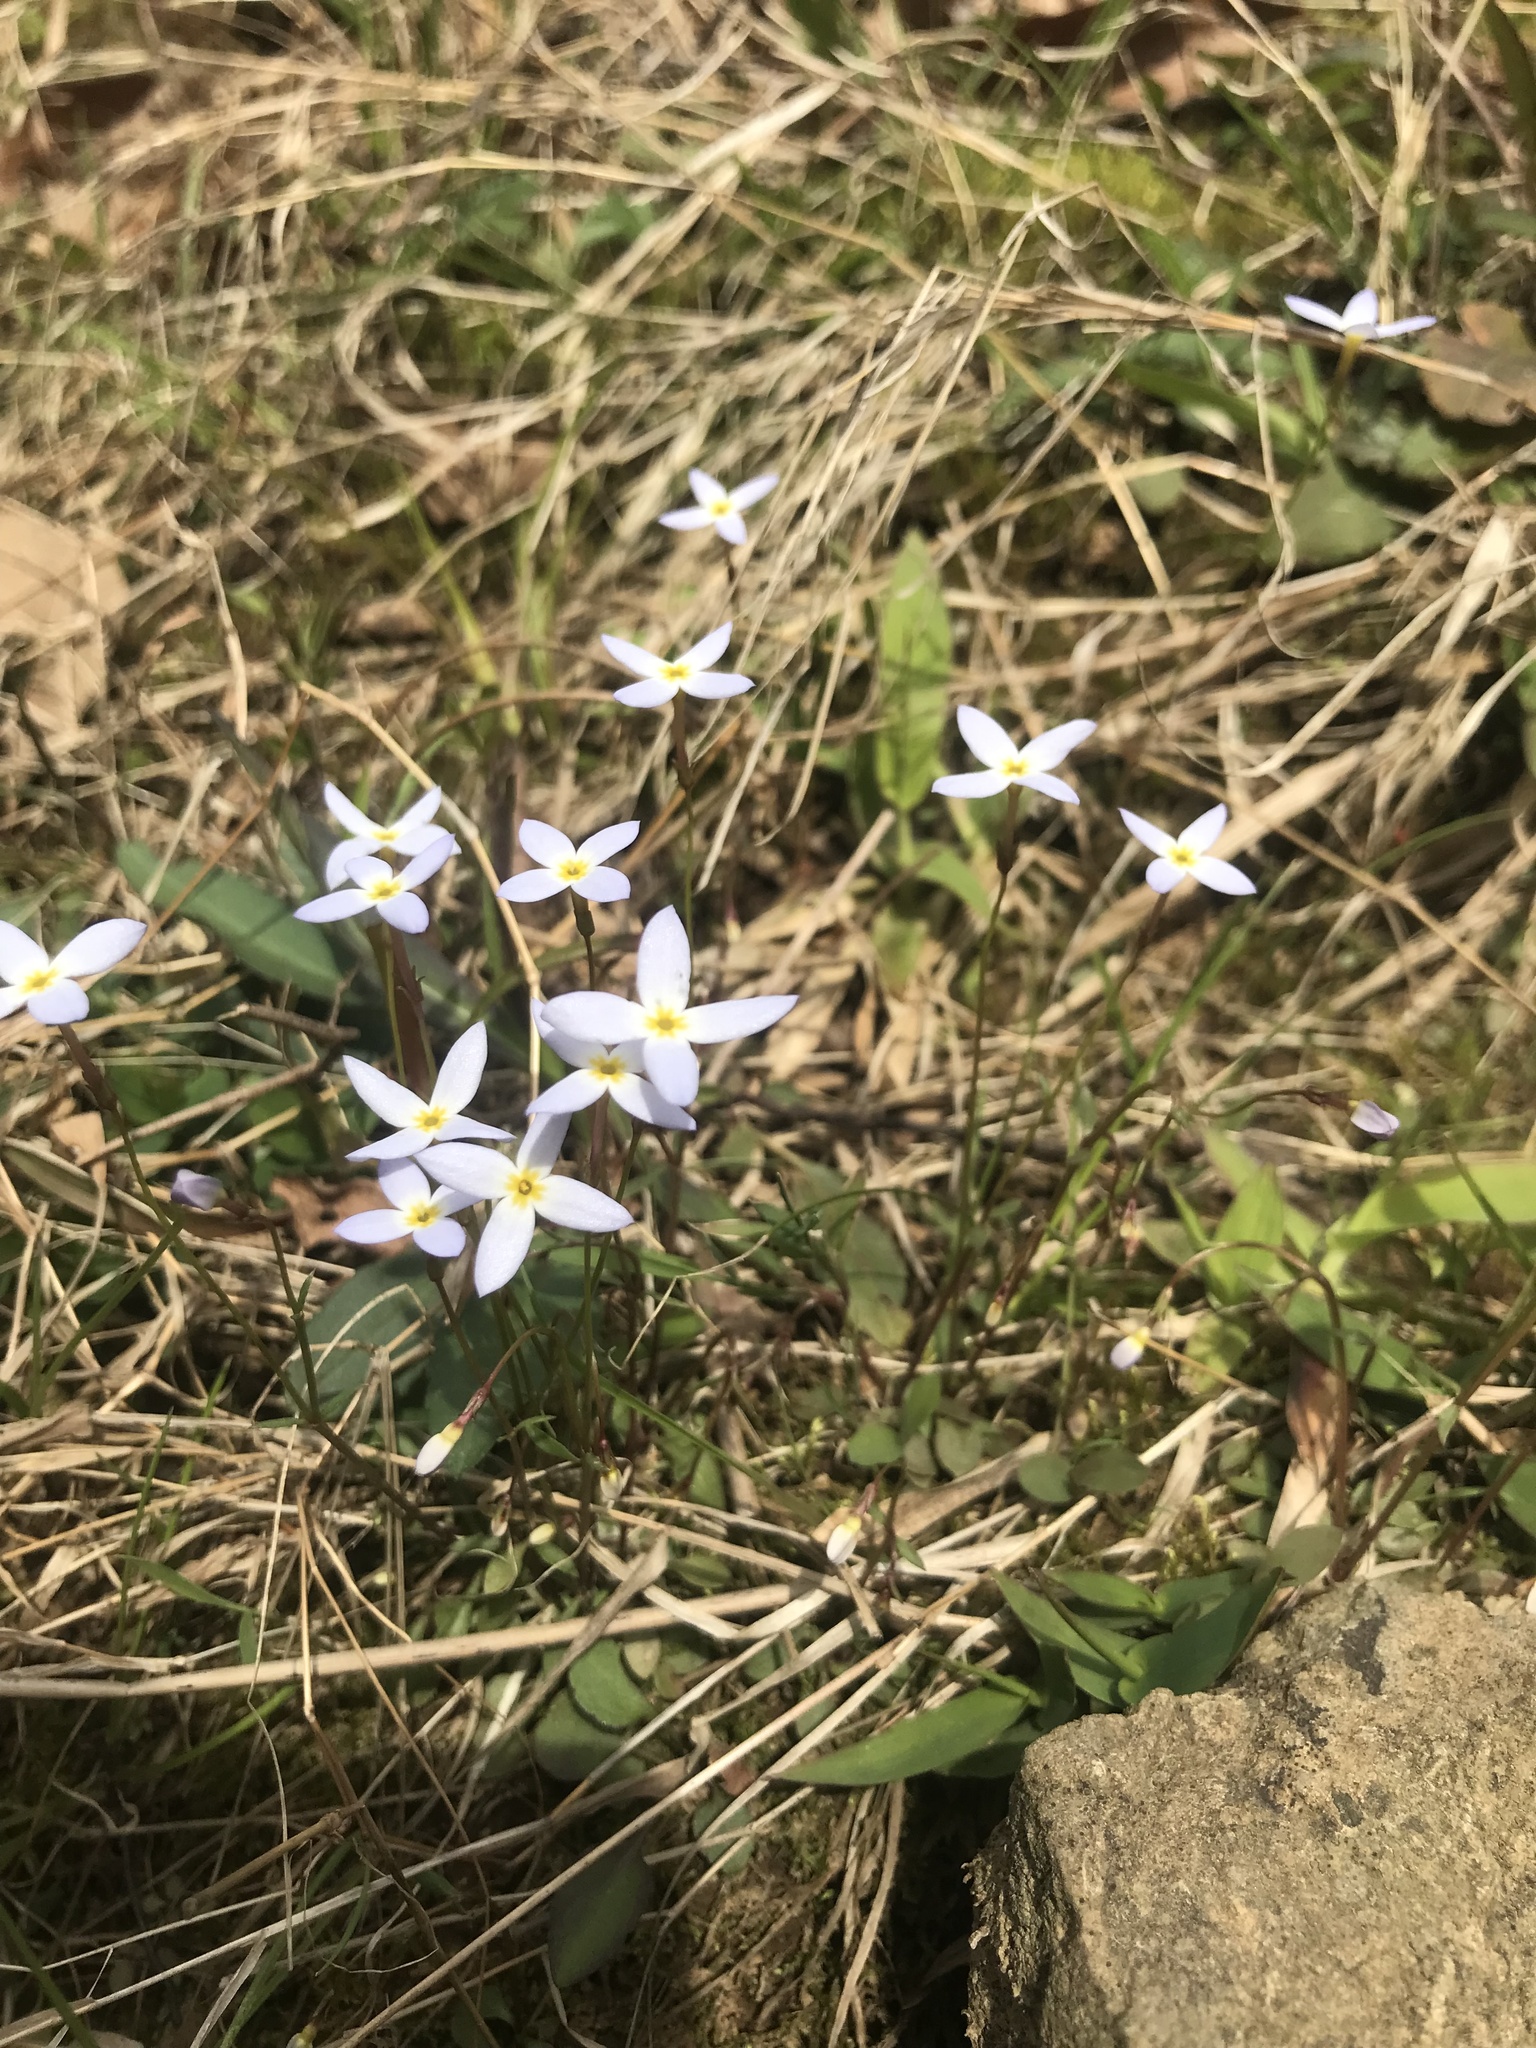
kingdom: Plantae
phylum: Tracheophyta
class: Magnoliopsida
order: Gentianales
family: Rubiaceae
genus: Houstonia
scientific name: Houstonia caerulea
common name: Bluets
